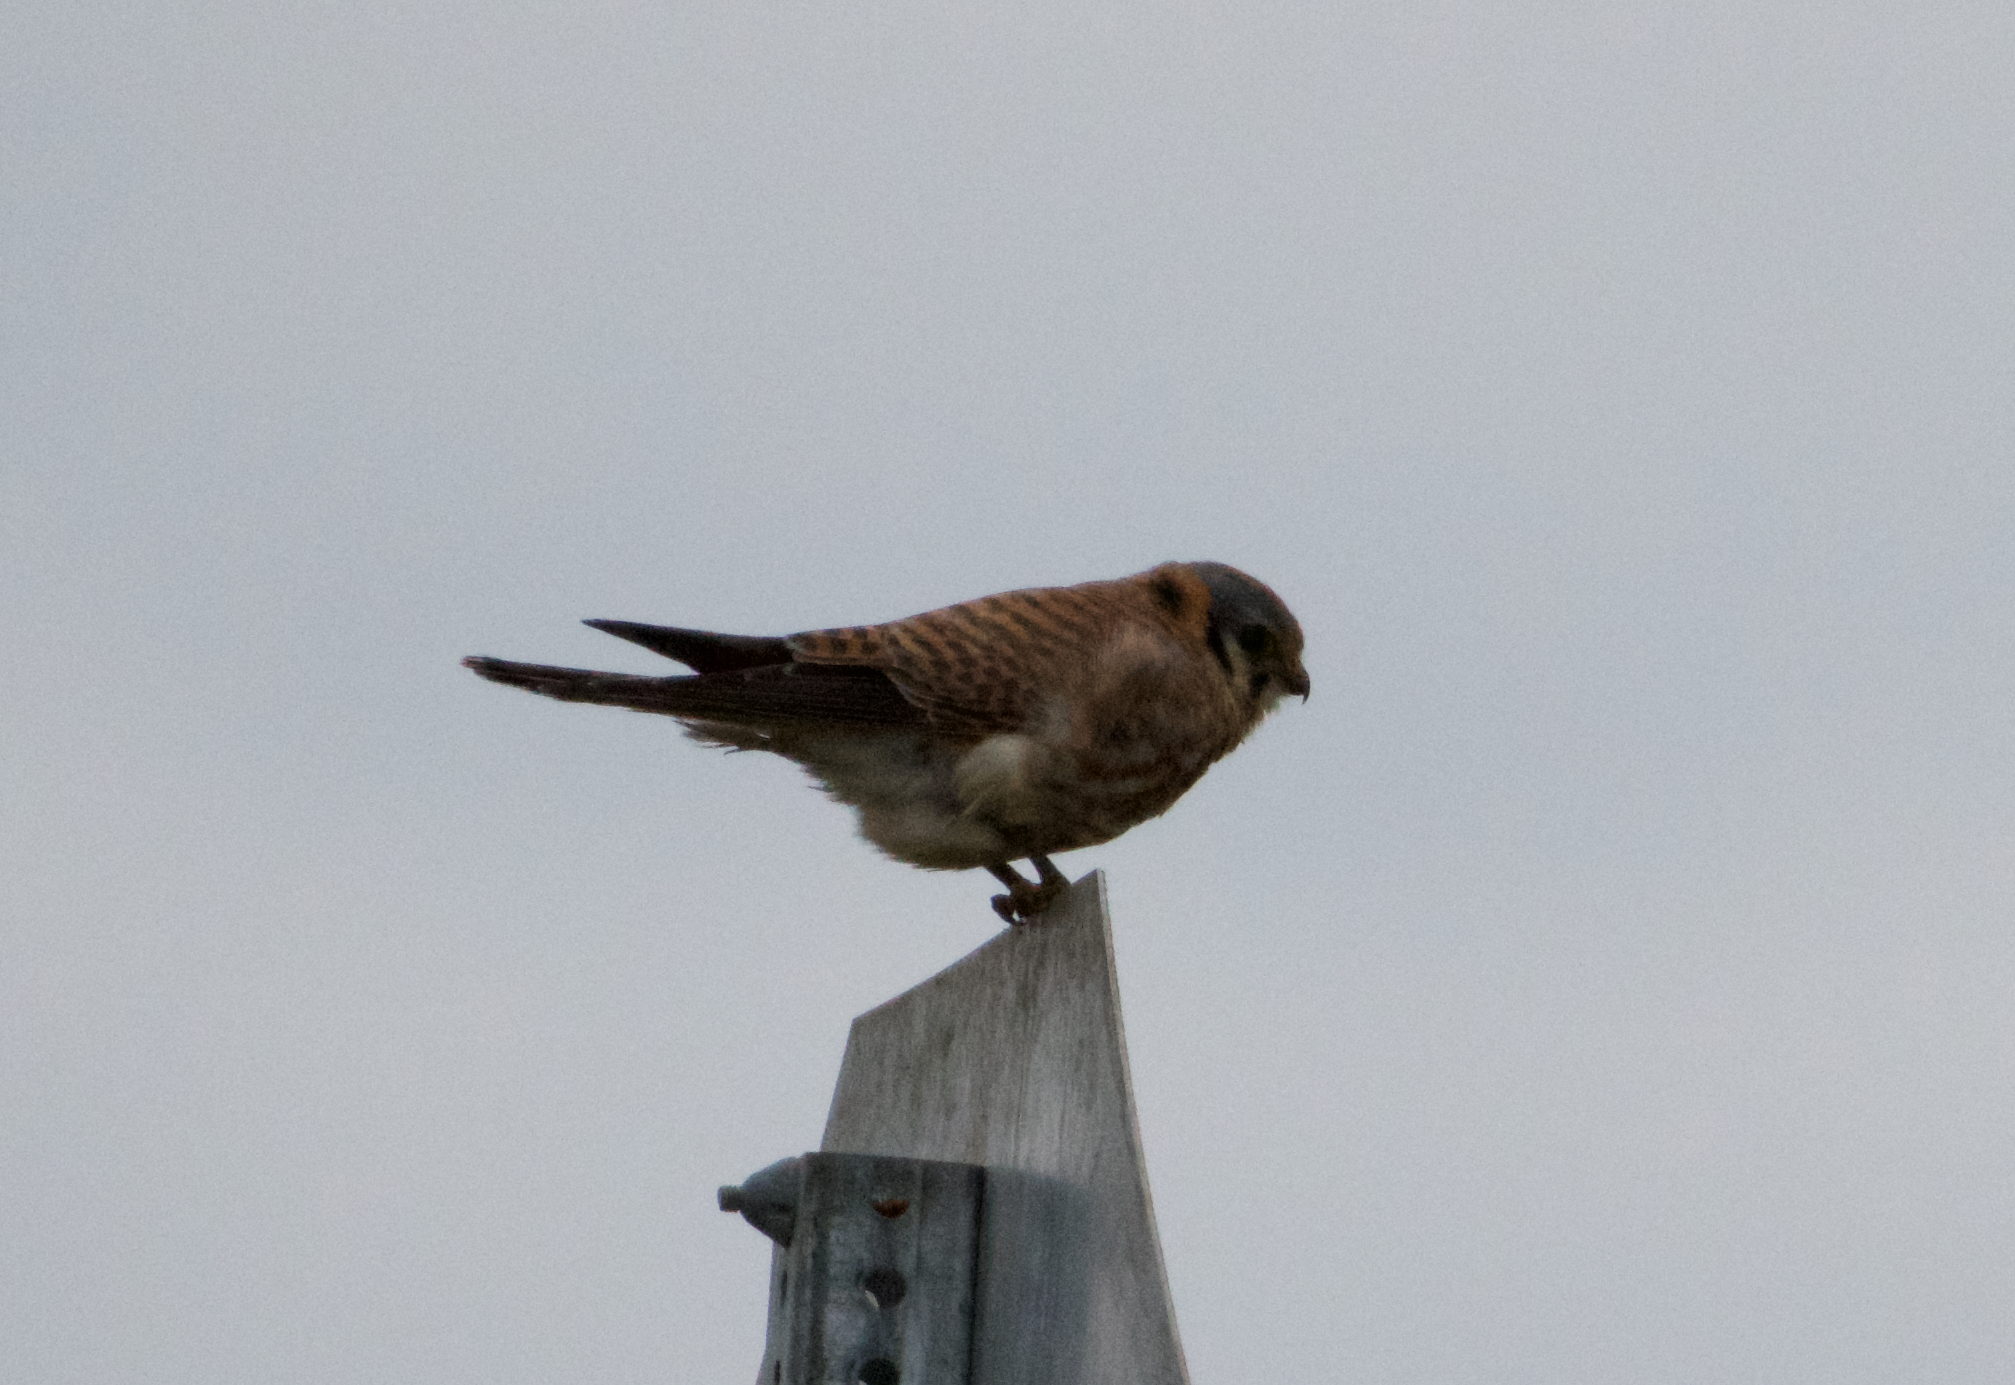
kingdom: Animalia
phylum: Chordata
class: Aves
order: Falconiformes
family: Falconidae
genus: Falco
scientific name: Falco sparverius
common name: American kestrel
